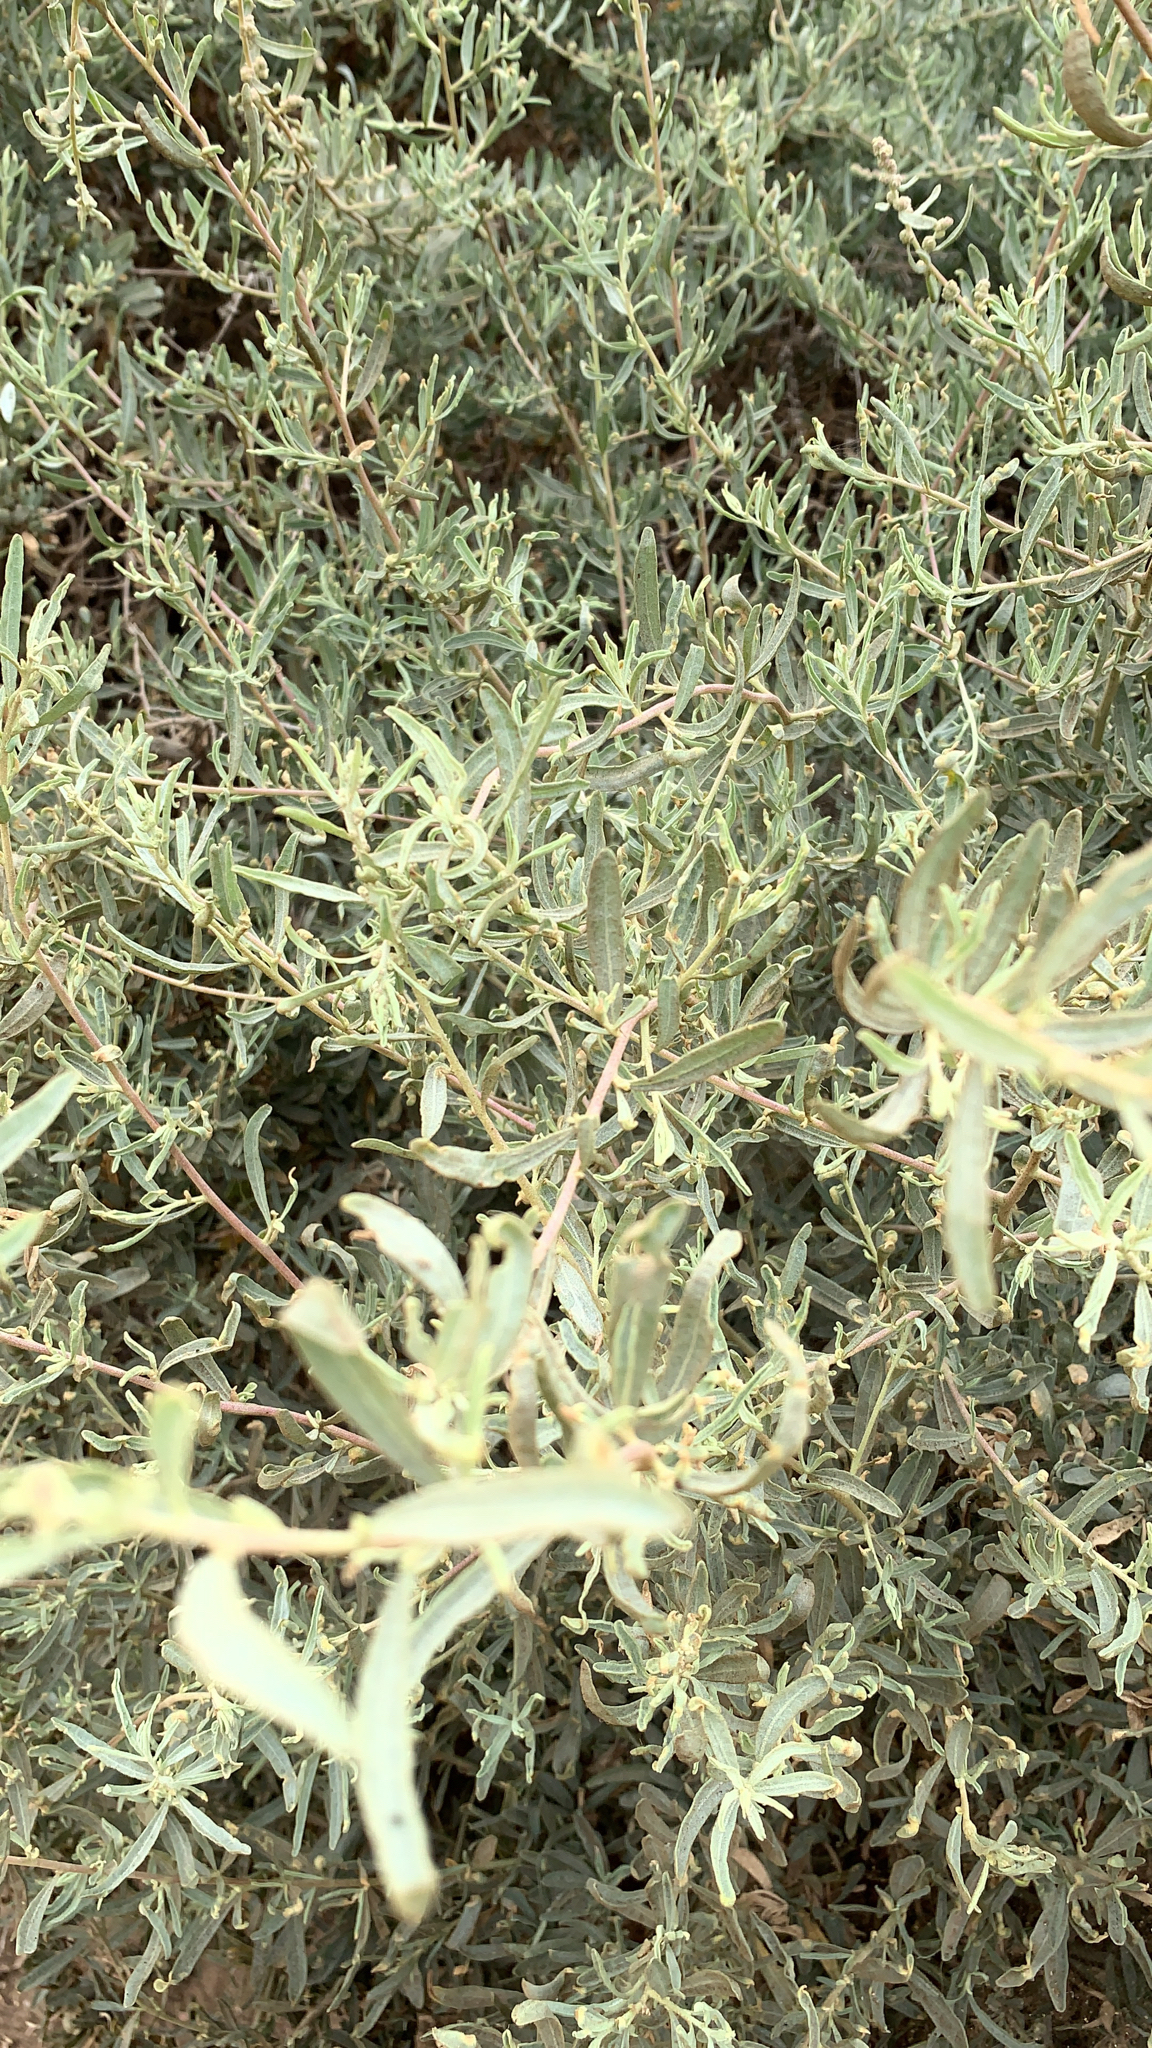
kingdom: Plantae
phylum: Tracheophyta
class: Magnoliopsida
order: Caryophyllales
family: Amaranthaceae
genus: Atriplex
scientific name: Atriplex canescens
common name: Four-wing saltbush
